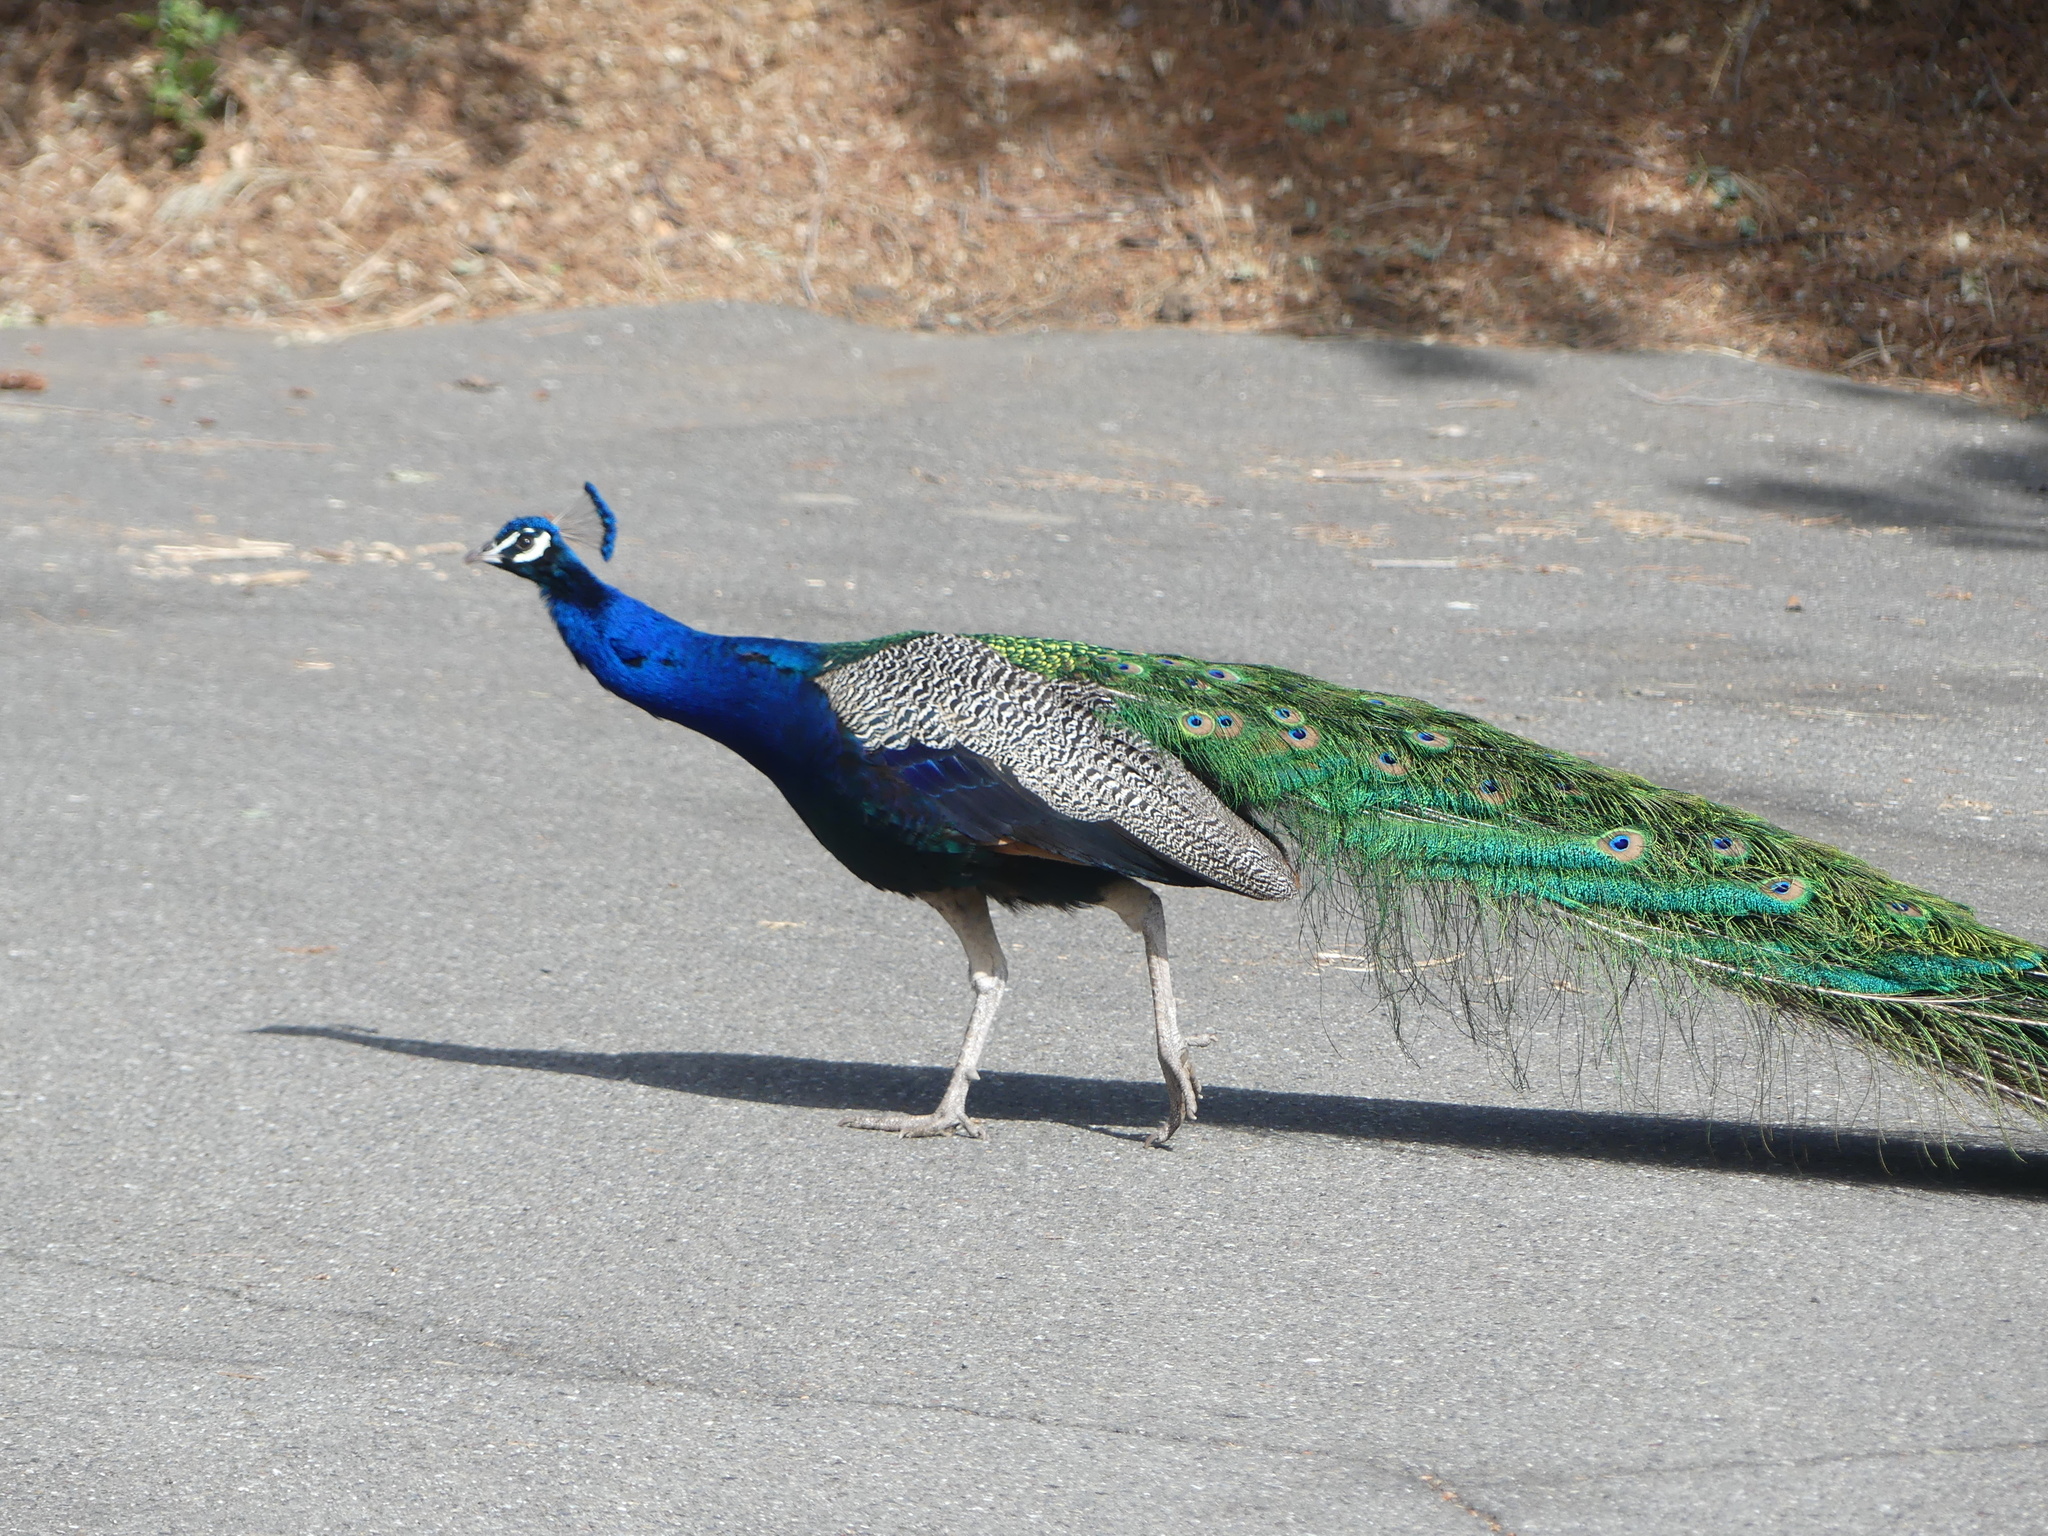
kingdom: Animalia
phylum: Chordata
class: Aves
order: Galliformes
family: Phasianidae
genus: Pavo
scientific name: Pavo cristatus
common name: Indian peafowl
